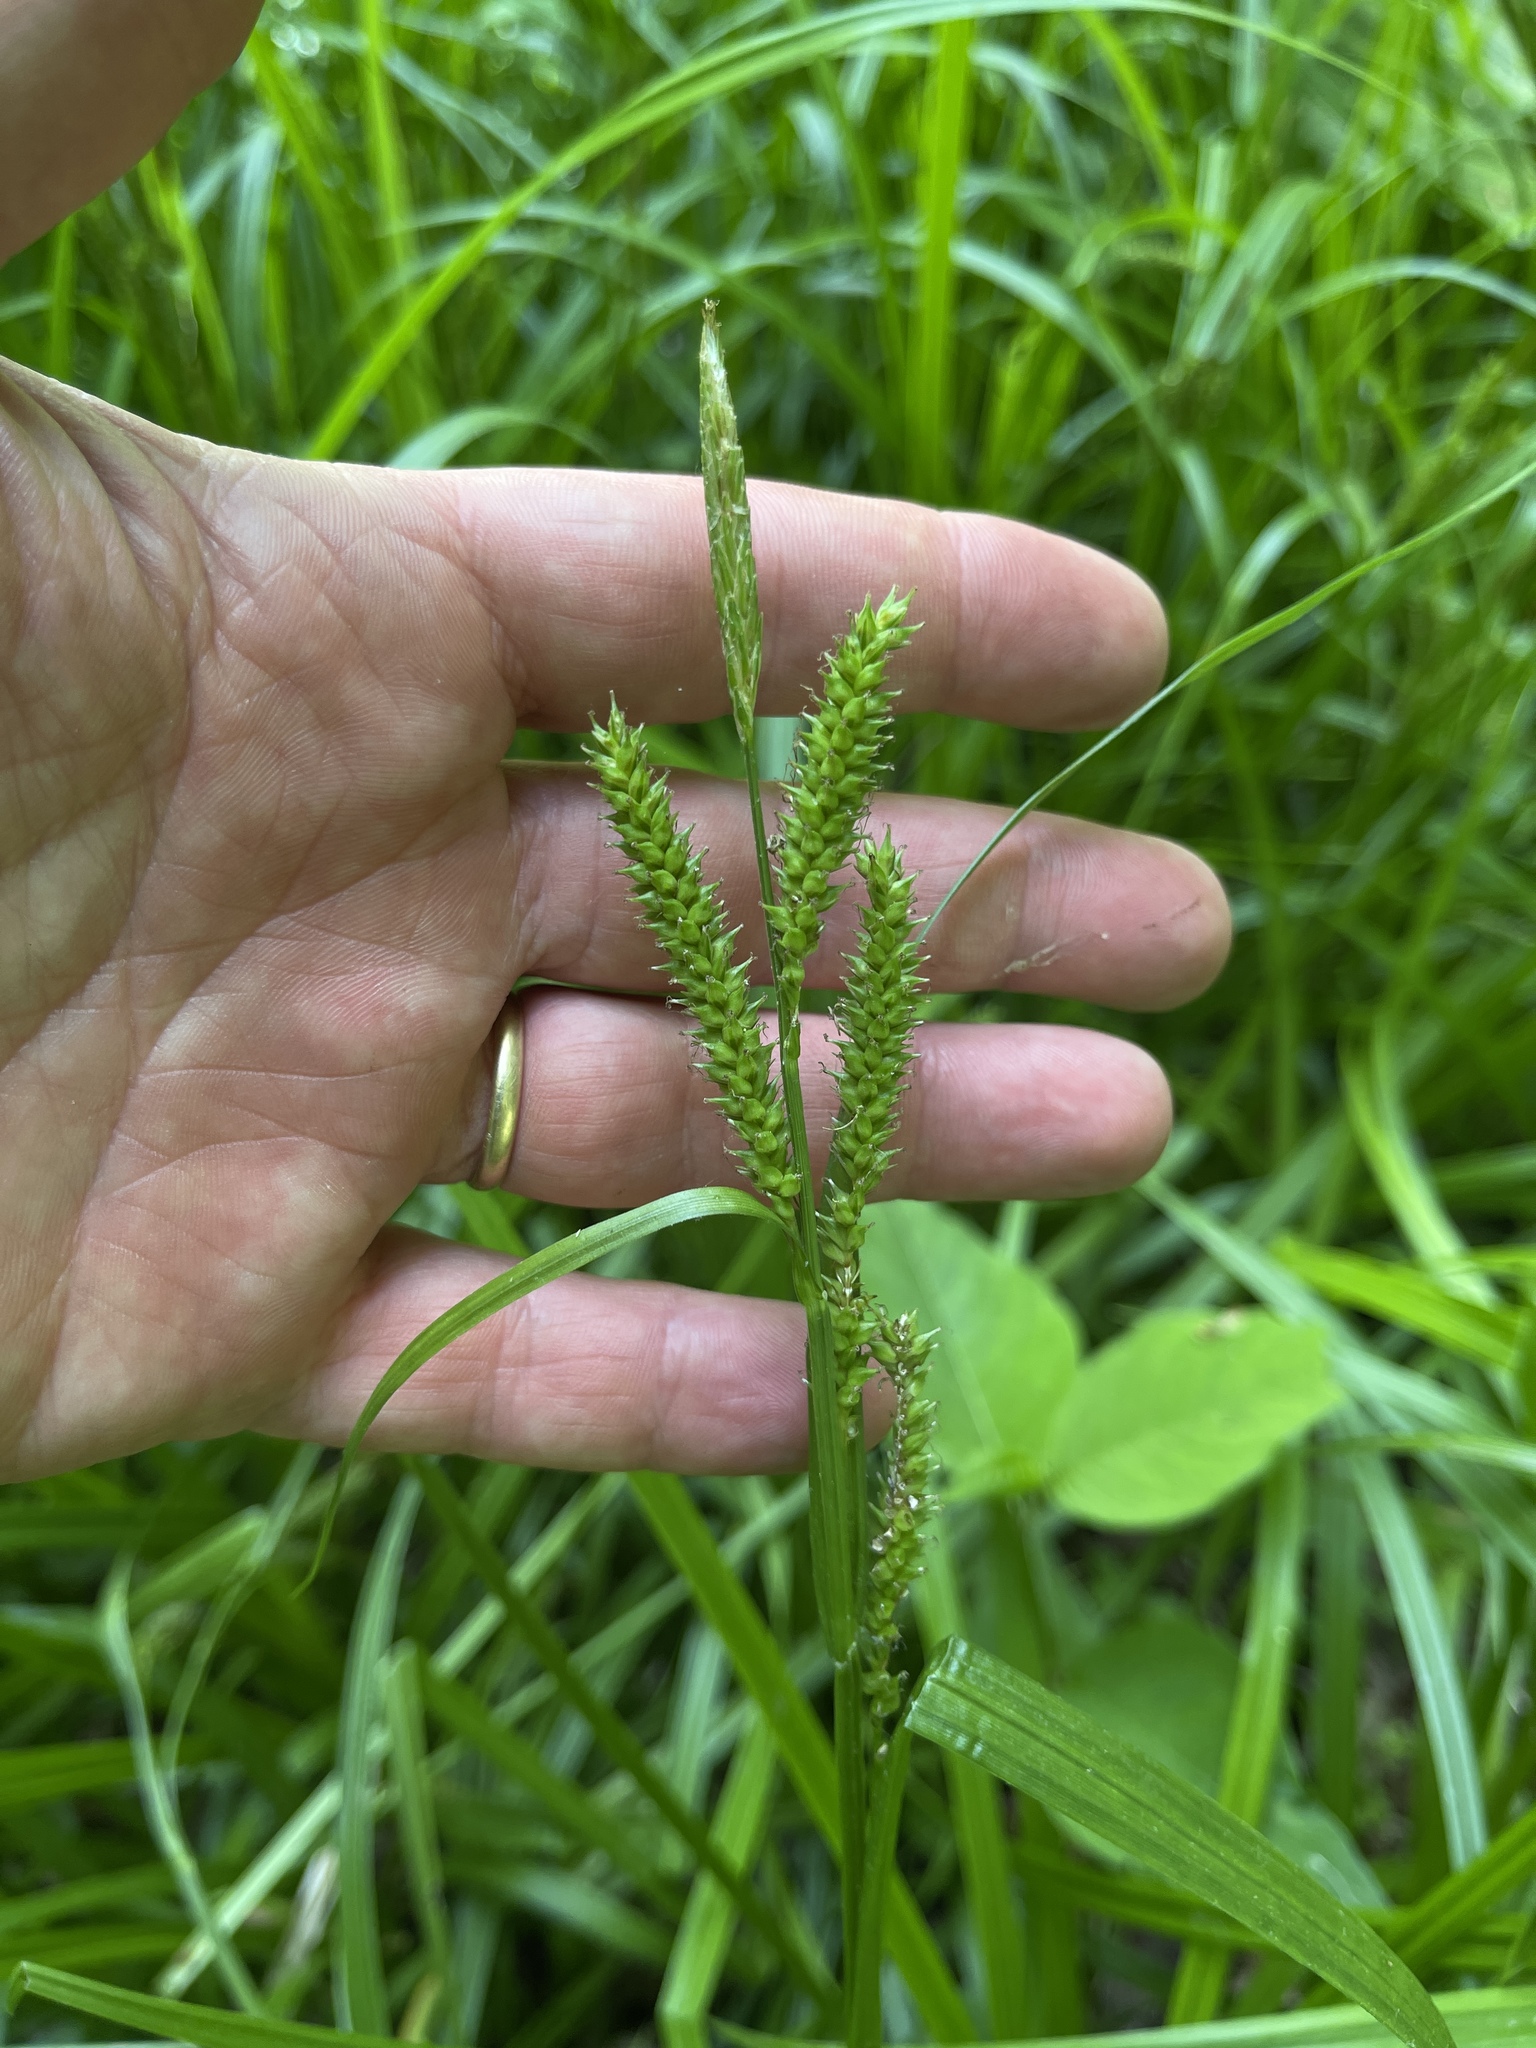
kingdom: Plantae
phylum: Tracheophyta
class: Liliopsida
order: Poales
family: Cyperaceae
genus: Carex
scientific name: Carex scabrata
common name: Eastern rough sedge
